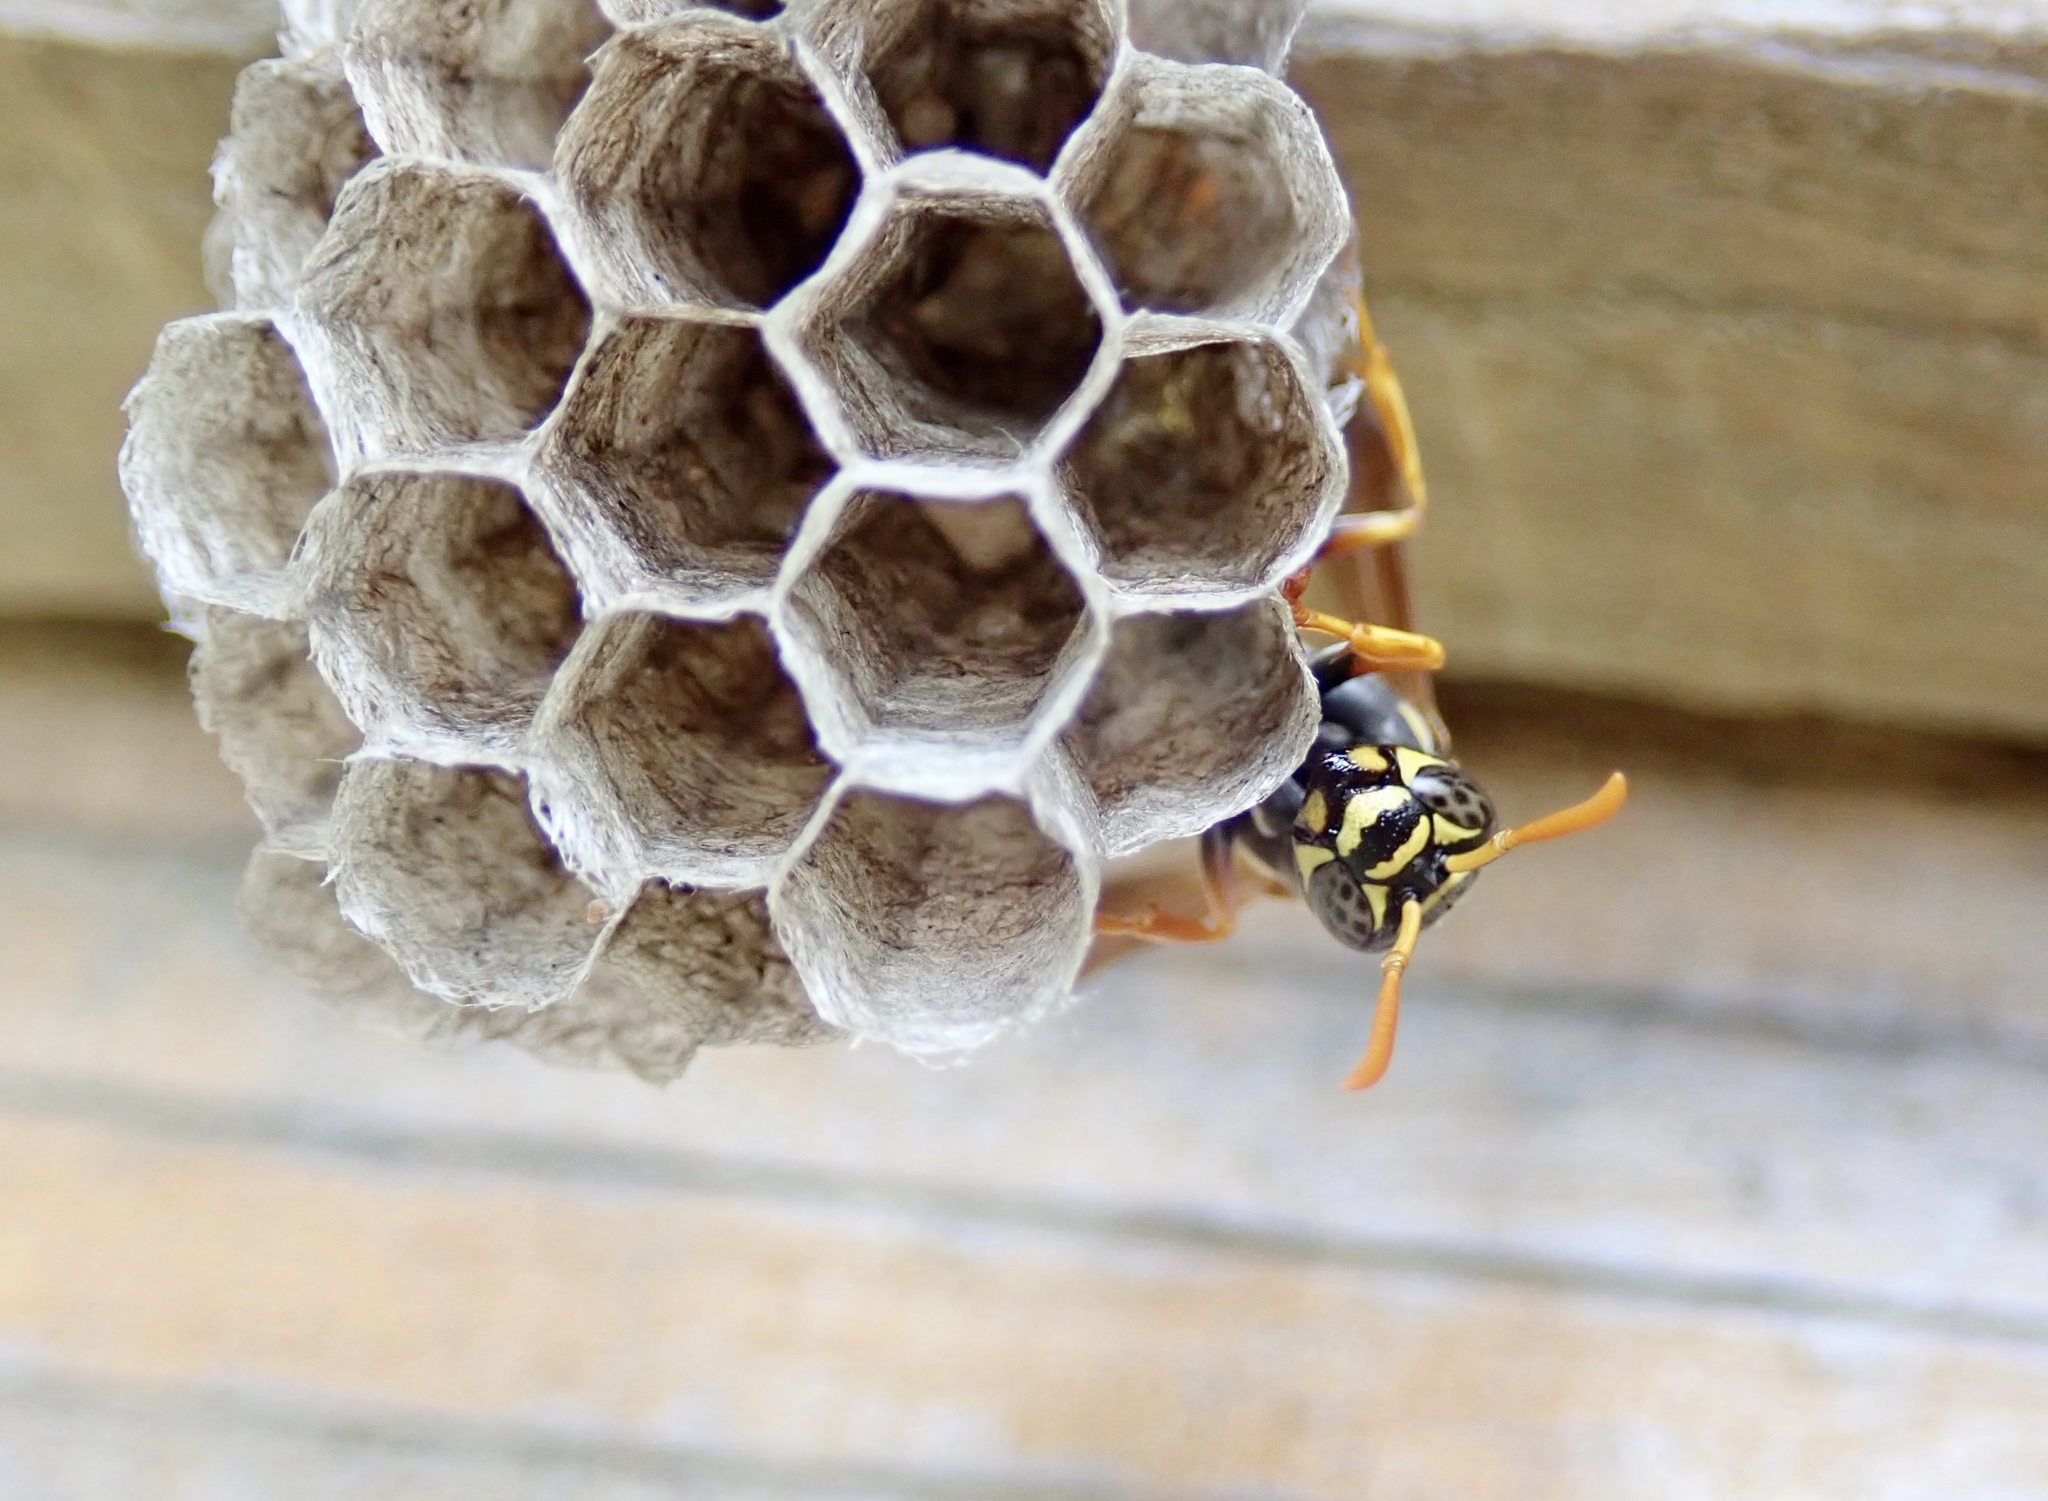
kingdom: Animalia
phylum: Arthropoda
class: Insecta
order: Hymenoptera
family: Eumenidae
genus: Polistes
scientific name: Polistes chinensis
